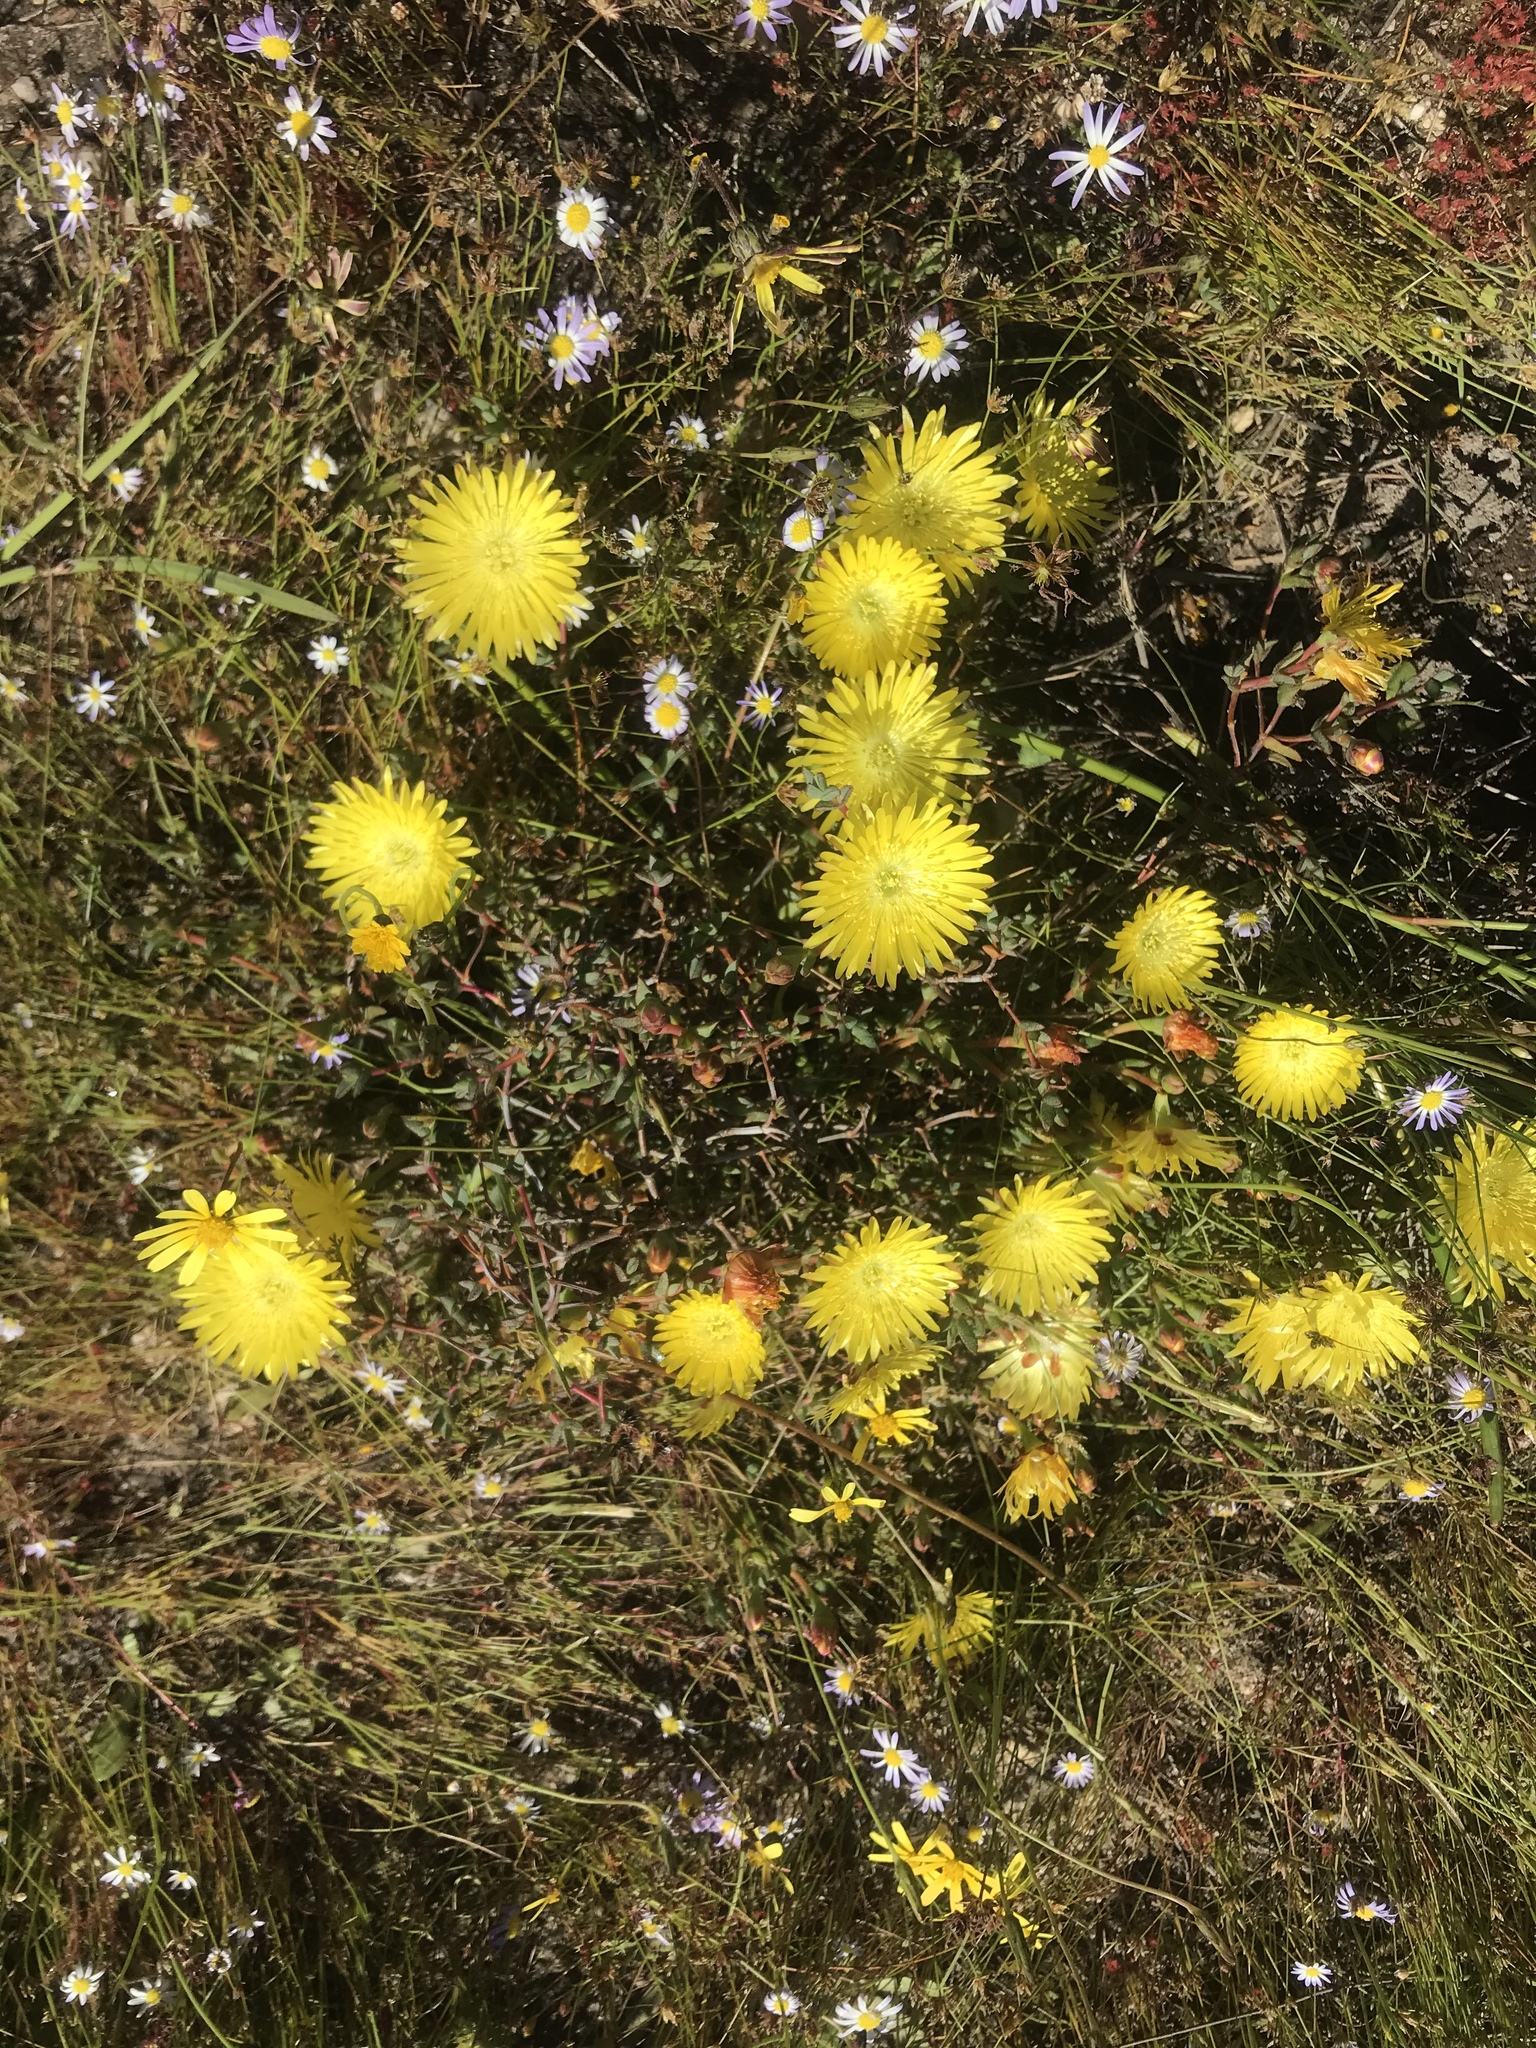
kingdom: Plantae
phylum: Tracheophyta
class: Magnoliopsida
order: Caryophyllales
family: Aizoaceae
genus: Lampranthus
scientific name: Lampranthus glaucus
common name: Noonflower
